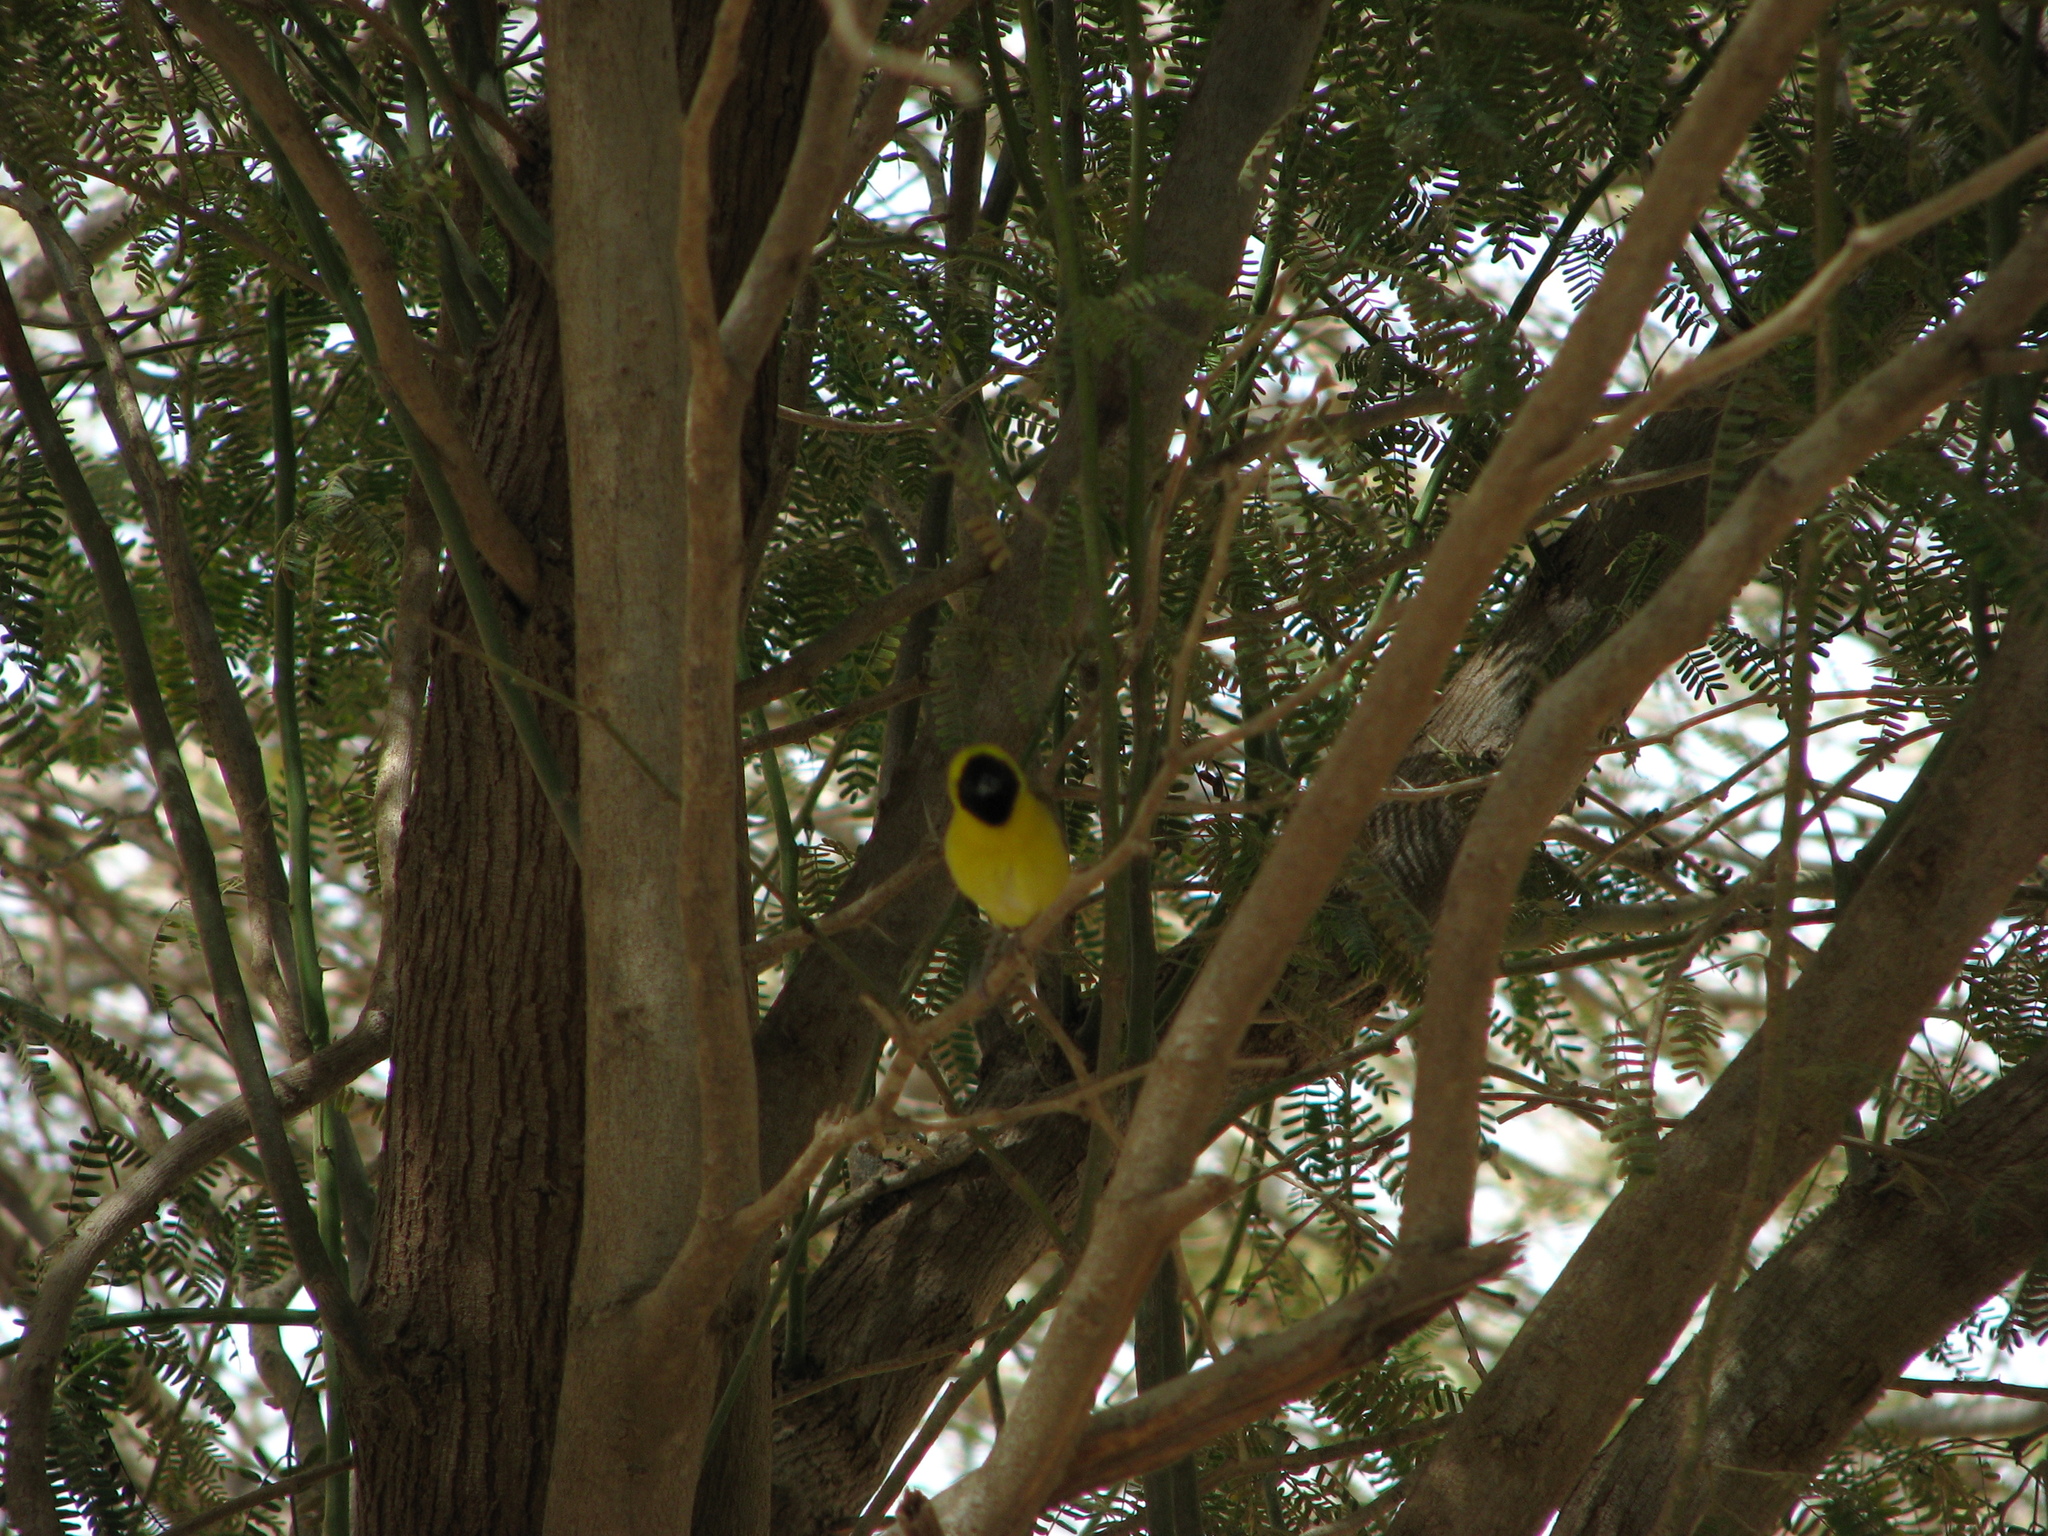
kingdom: Animalia
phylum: Chordata
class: Aves
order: Passeriformes
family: Ploceidae
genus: Ploceus
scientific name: Ploceus luteolus
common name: Little weaver
